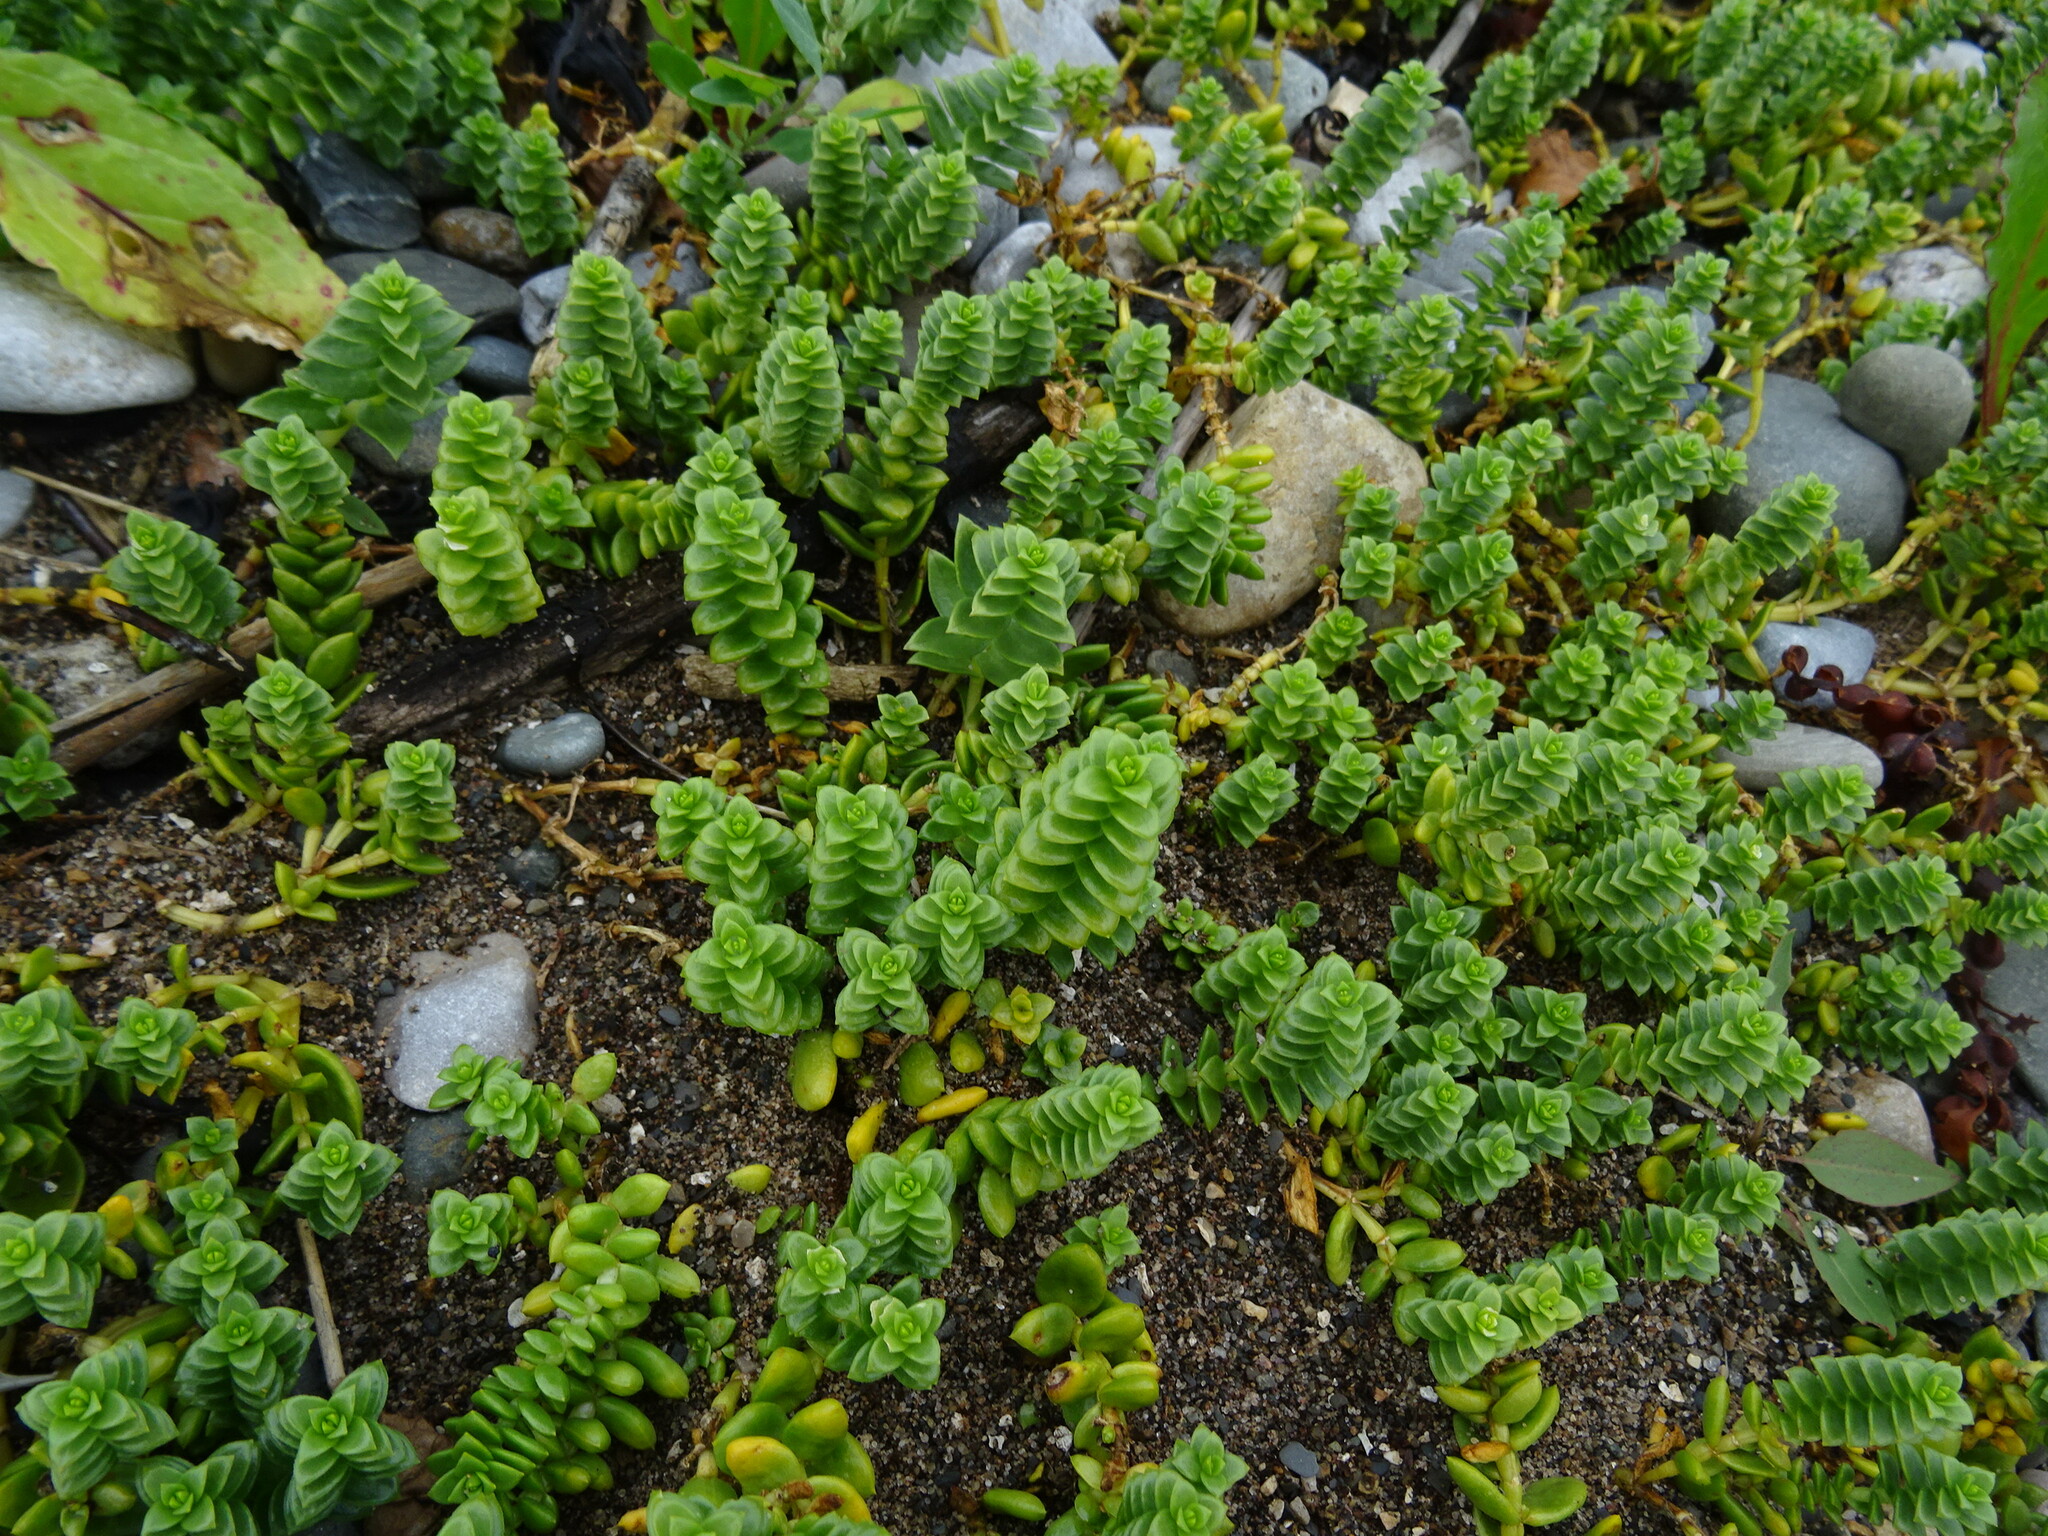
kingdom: Plantae
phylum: Tracheophyta
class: Magnoliopsida
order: Caryophyllales
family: Caryophyllaceae
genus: Honckenya
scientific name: Honckenya peploides
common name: Sea sandwort
